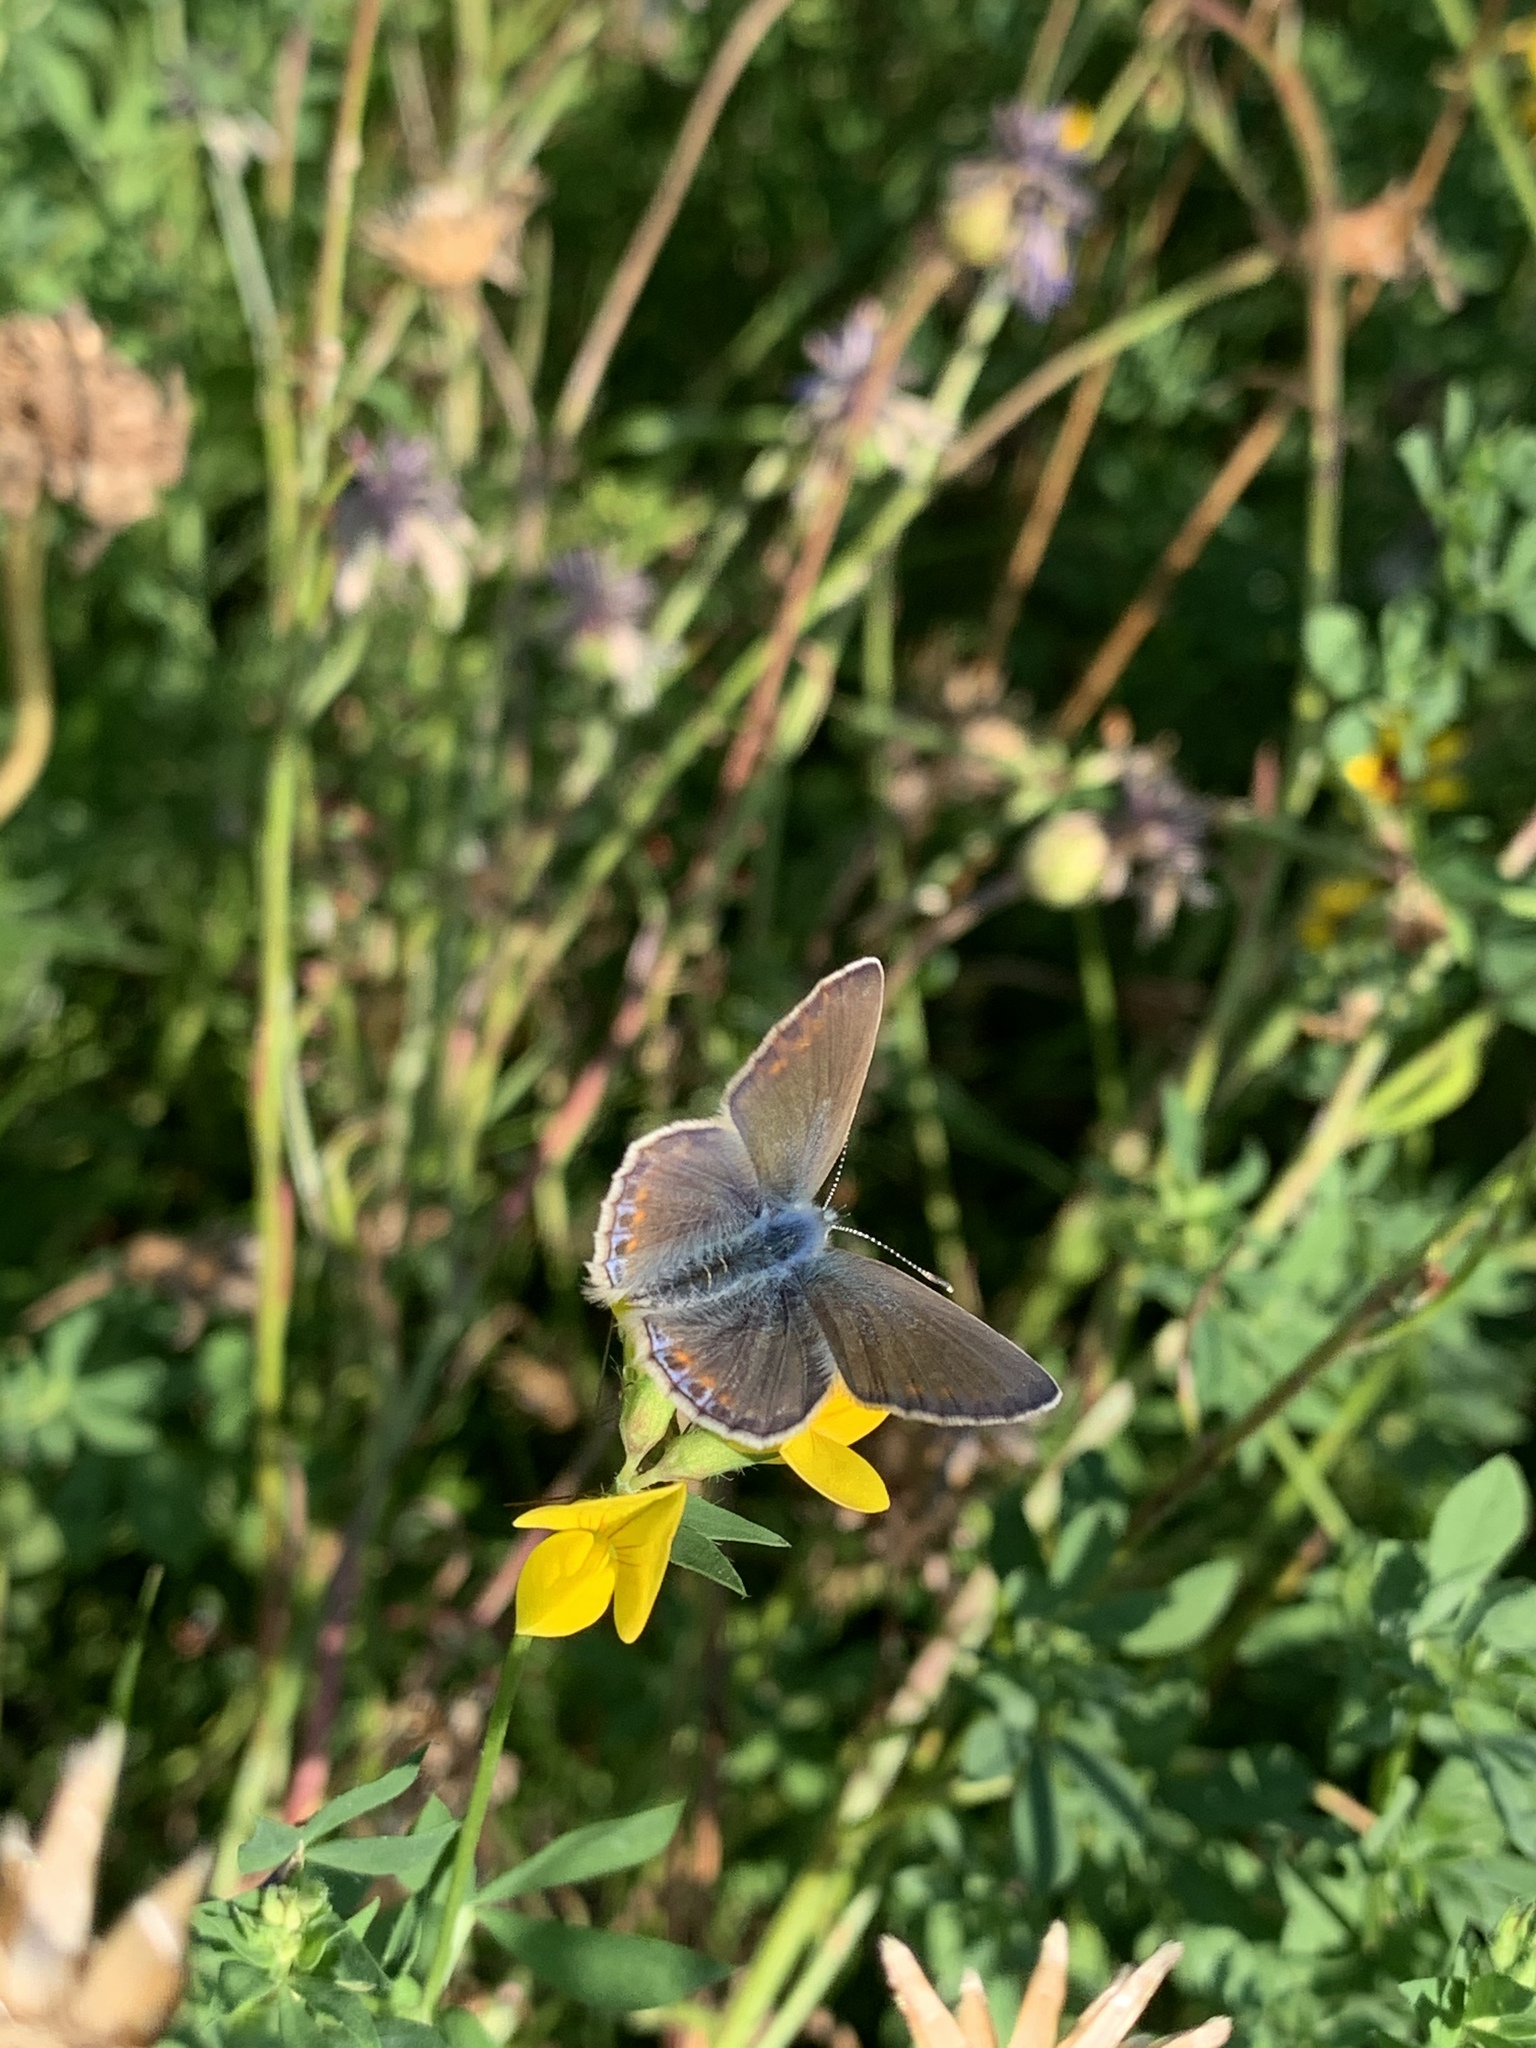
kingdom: Animalia
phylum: Arthropoda
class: Insecta
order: Lepidoptera
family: Lycaenidae
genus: Polyommatus
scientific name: Polyommatus icarus
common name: Common blue
